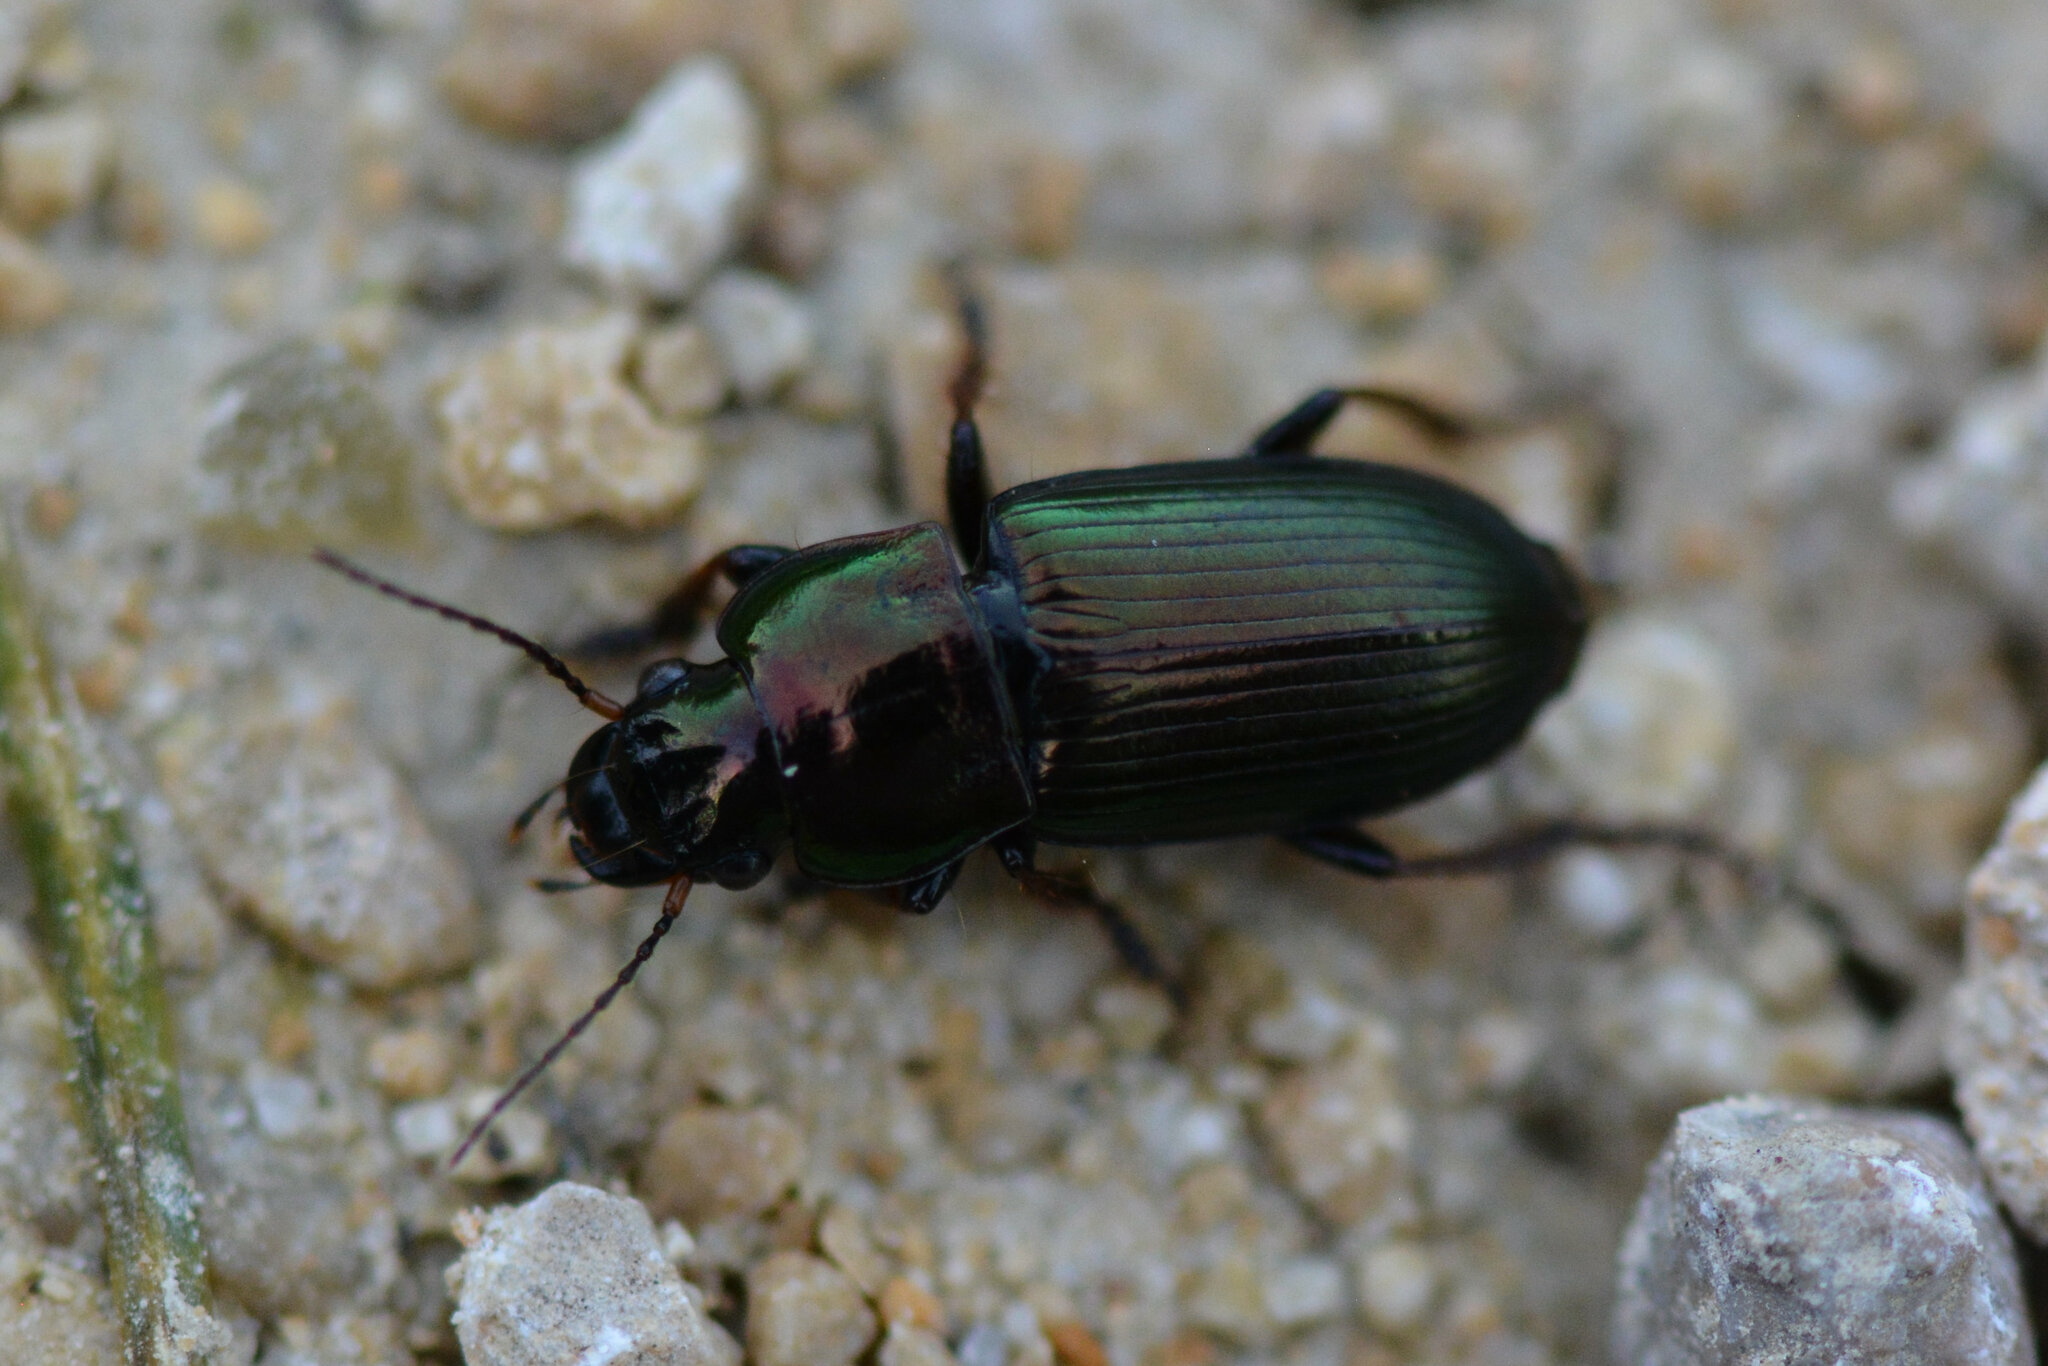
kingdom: Animalia
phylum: Arthropoda
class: Insecta
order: Coleoptera
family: Carabidae
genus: Harpalus
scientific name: Harpalus distinguendus
